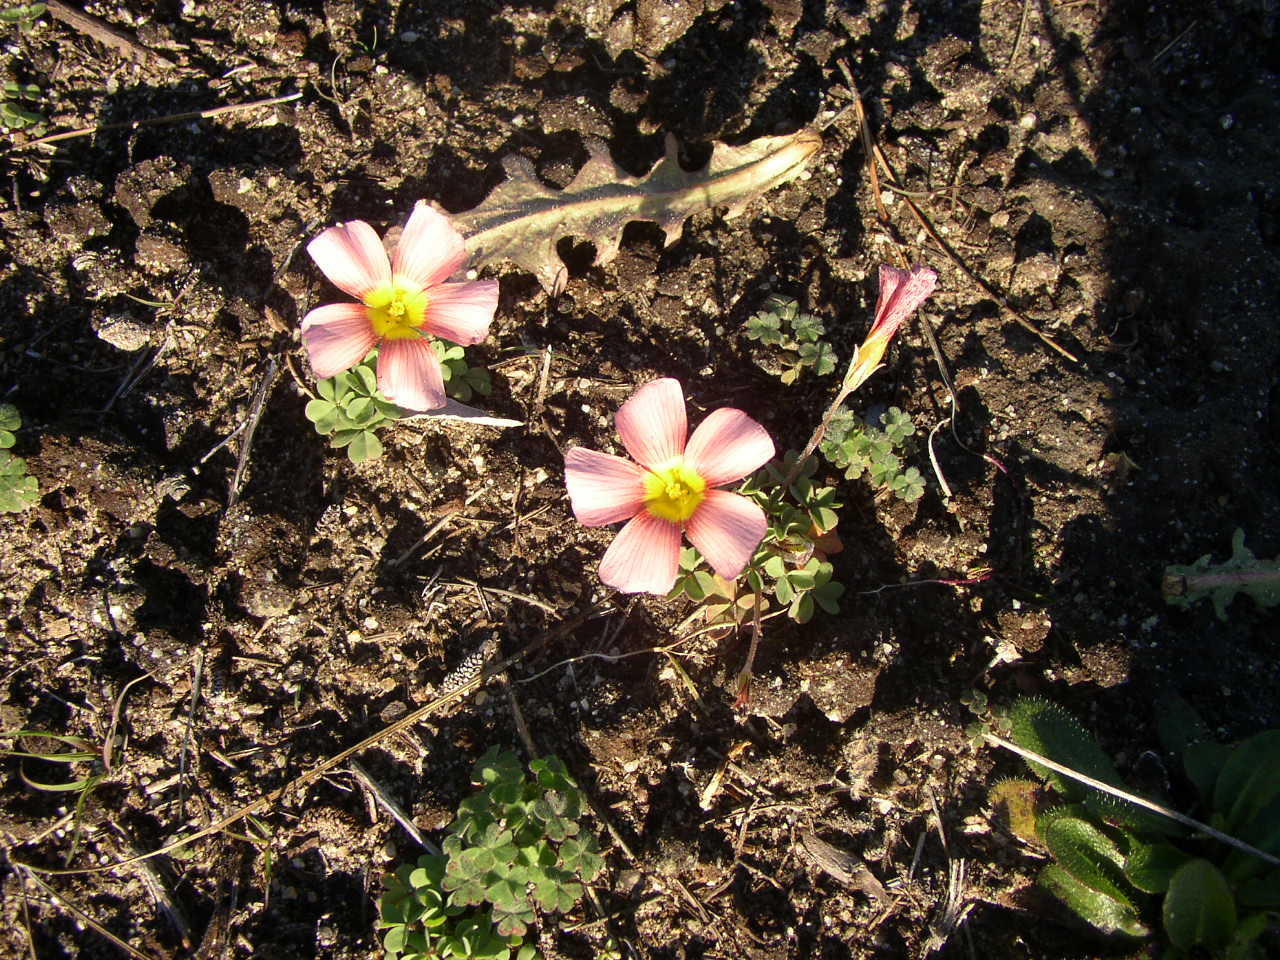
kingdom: Plantae
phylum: Tracheophyta
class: Magnoliopsida
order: Oxalidales
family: Oxalidaceae
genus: Oxalis
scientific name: Oxalis obtusa
